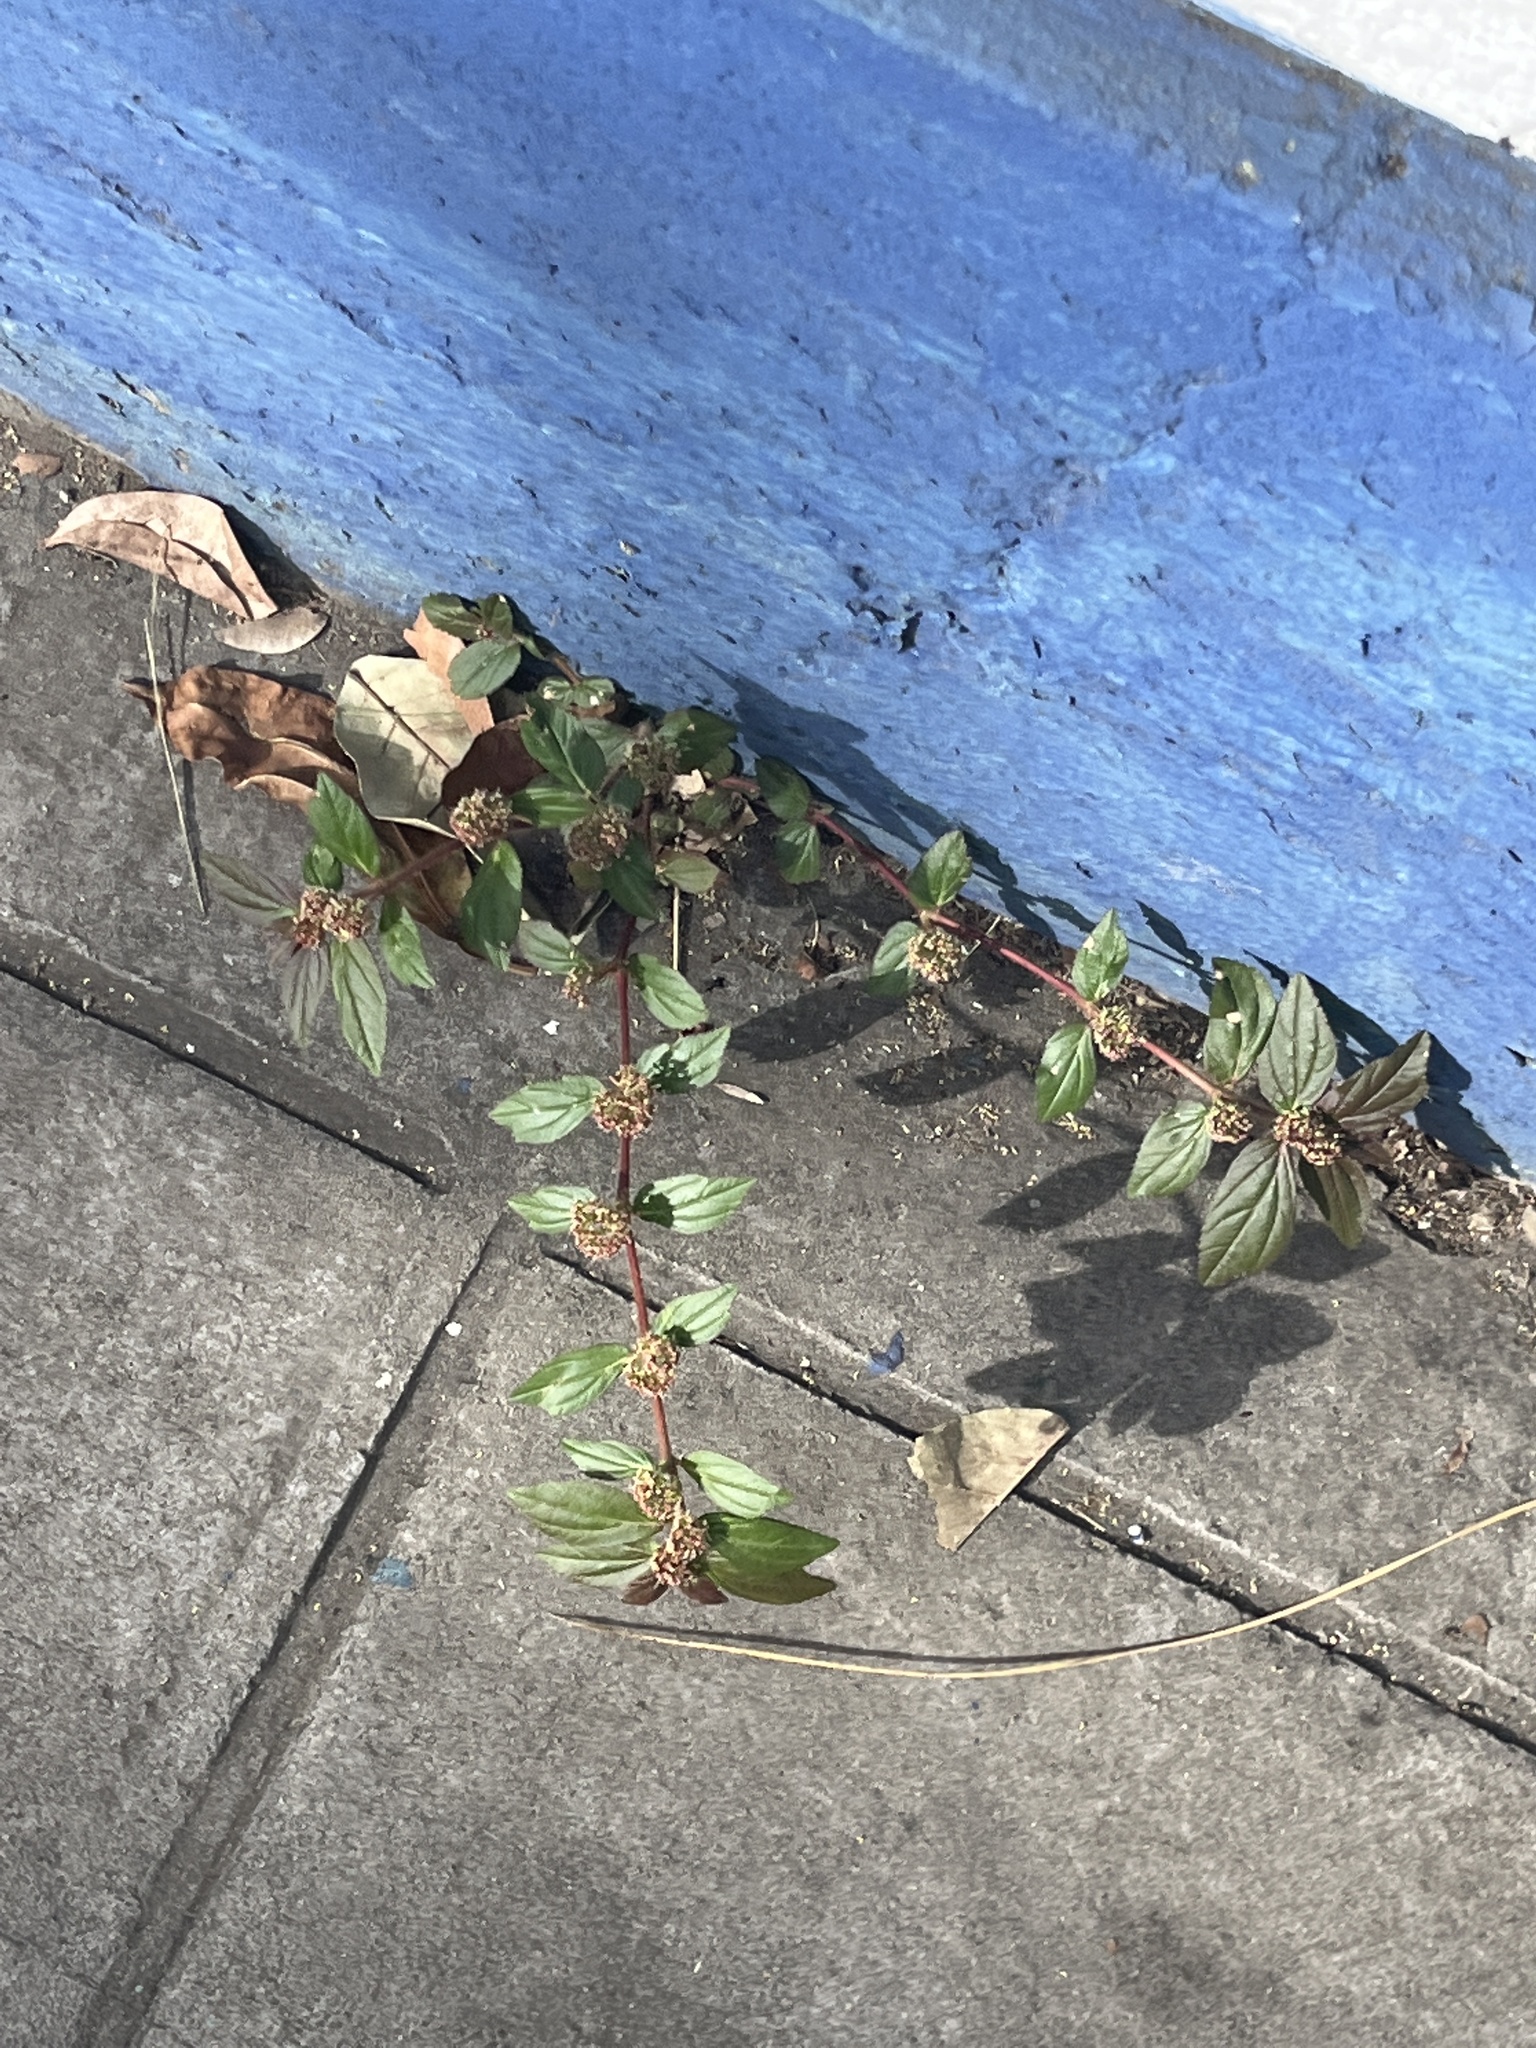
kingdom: Plantae
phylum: Tracheophyta
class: Magnoliopsida
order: Malpighiales
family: Euphorbiaceae
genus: Euphorbia
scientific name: Euphorbia hirta
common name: Pillpod sandmat
